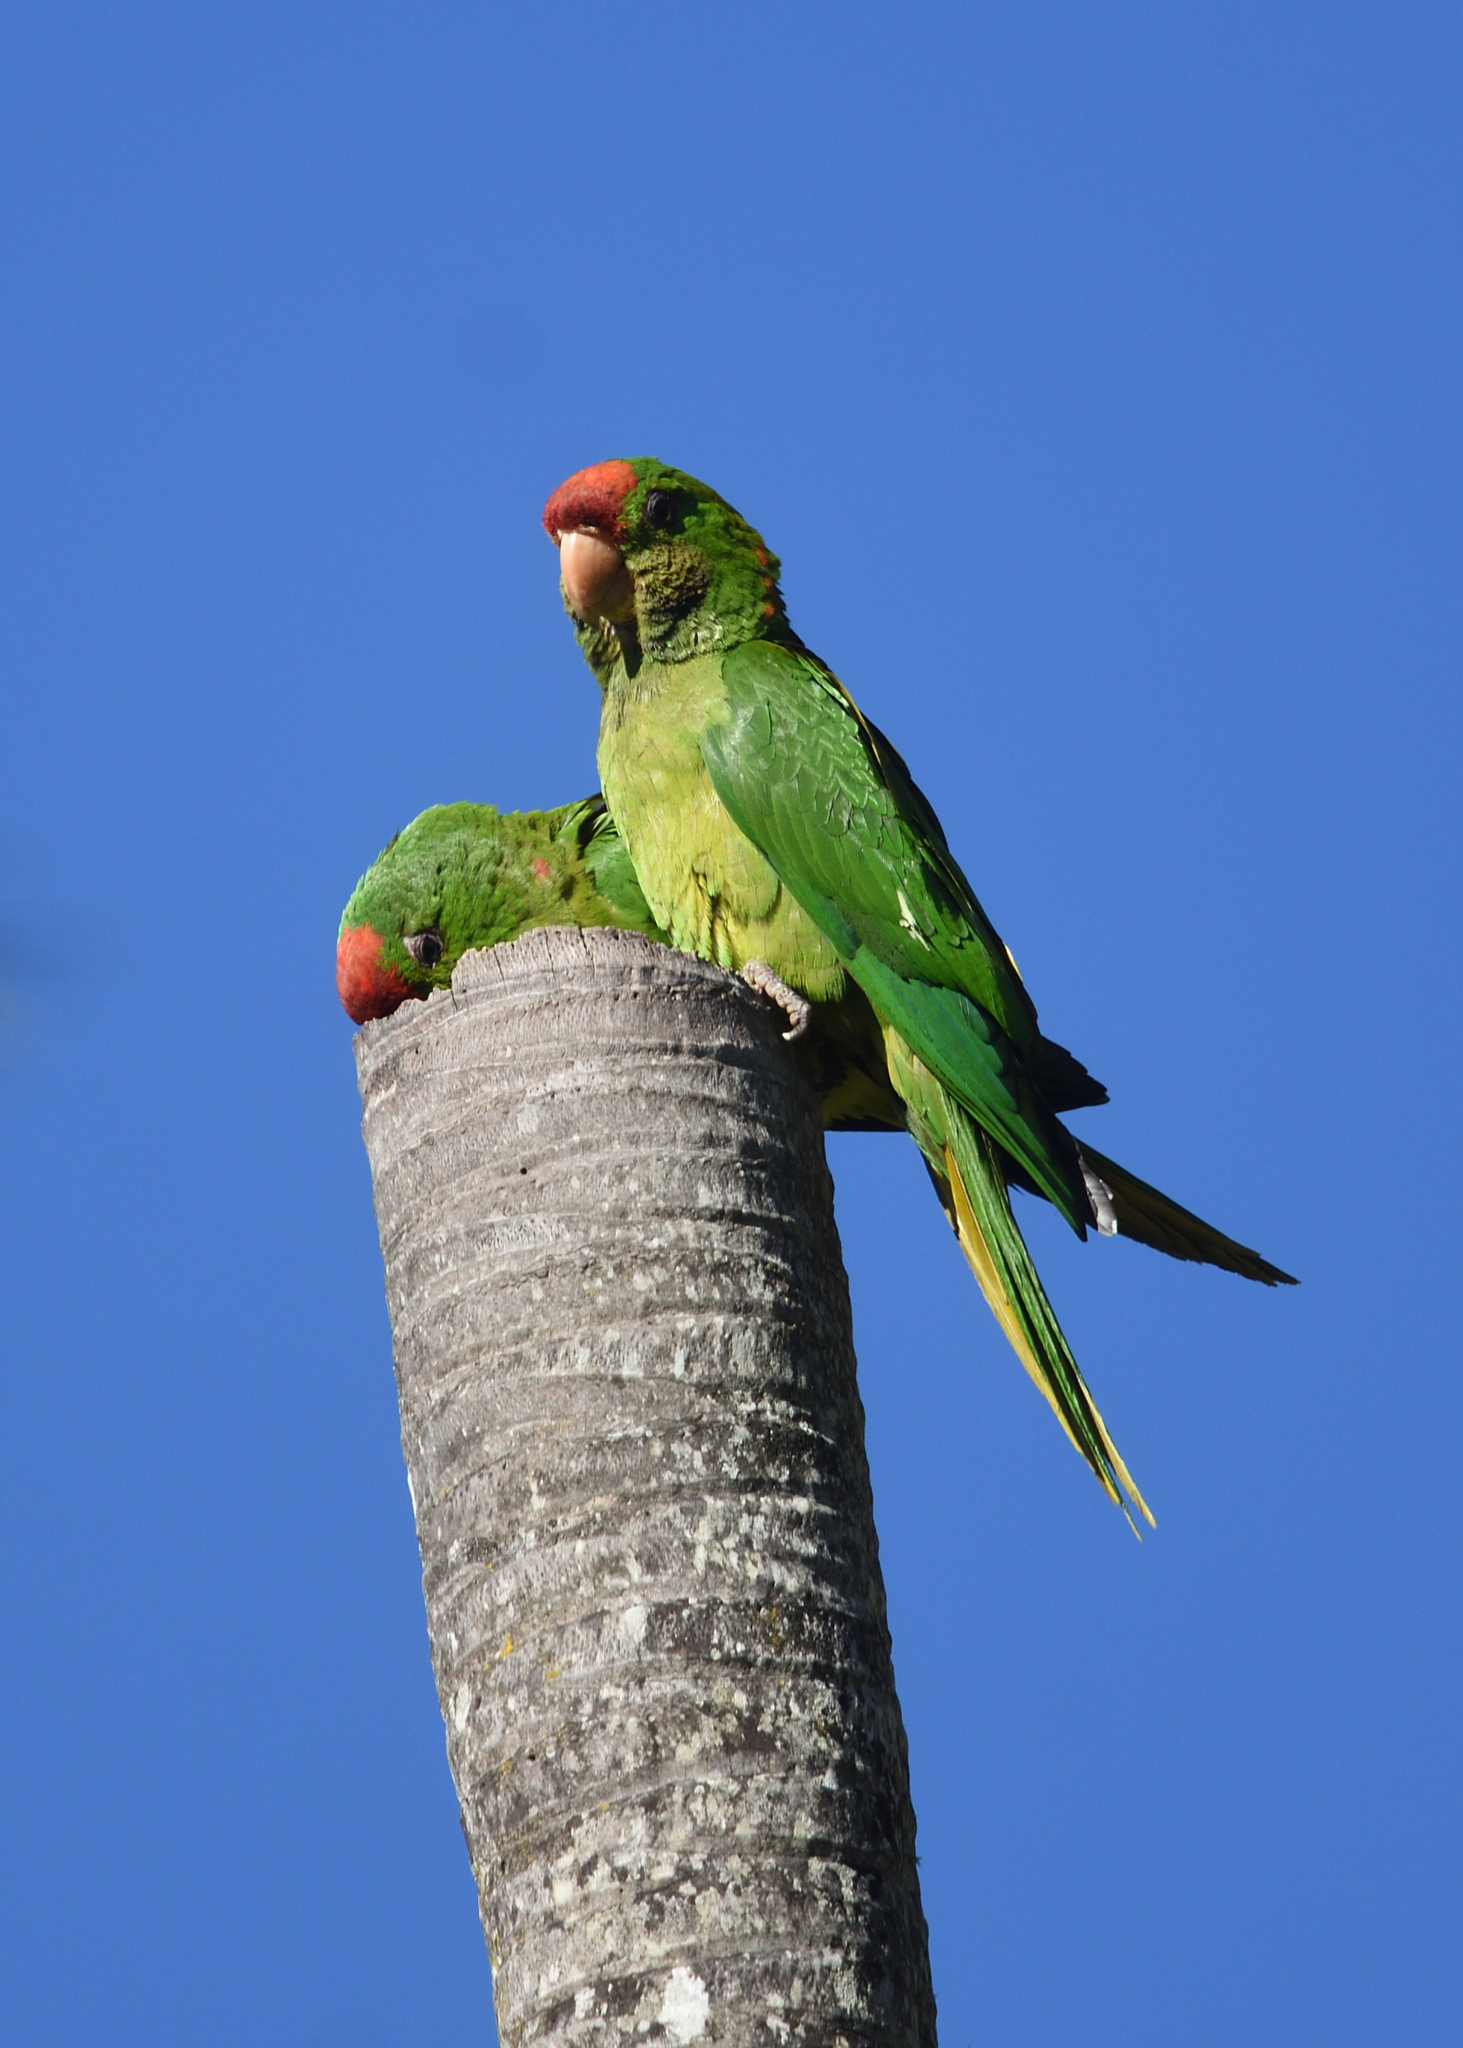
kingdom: Animalia
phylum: Chordata
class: Aves
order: Psittaciformes
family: Psittacidae
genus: Aratinga
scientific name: Aratinga wagleri
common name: Scarlet-fronted parakeet
